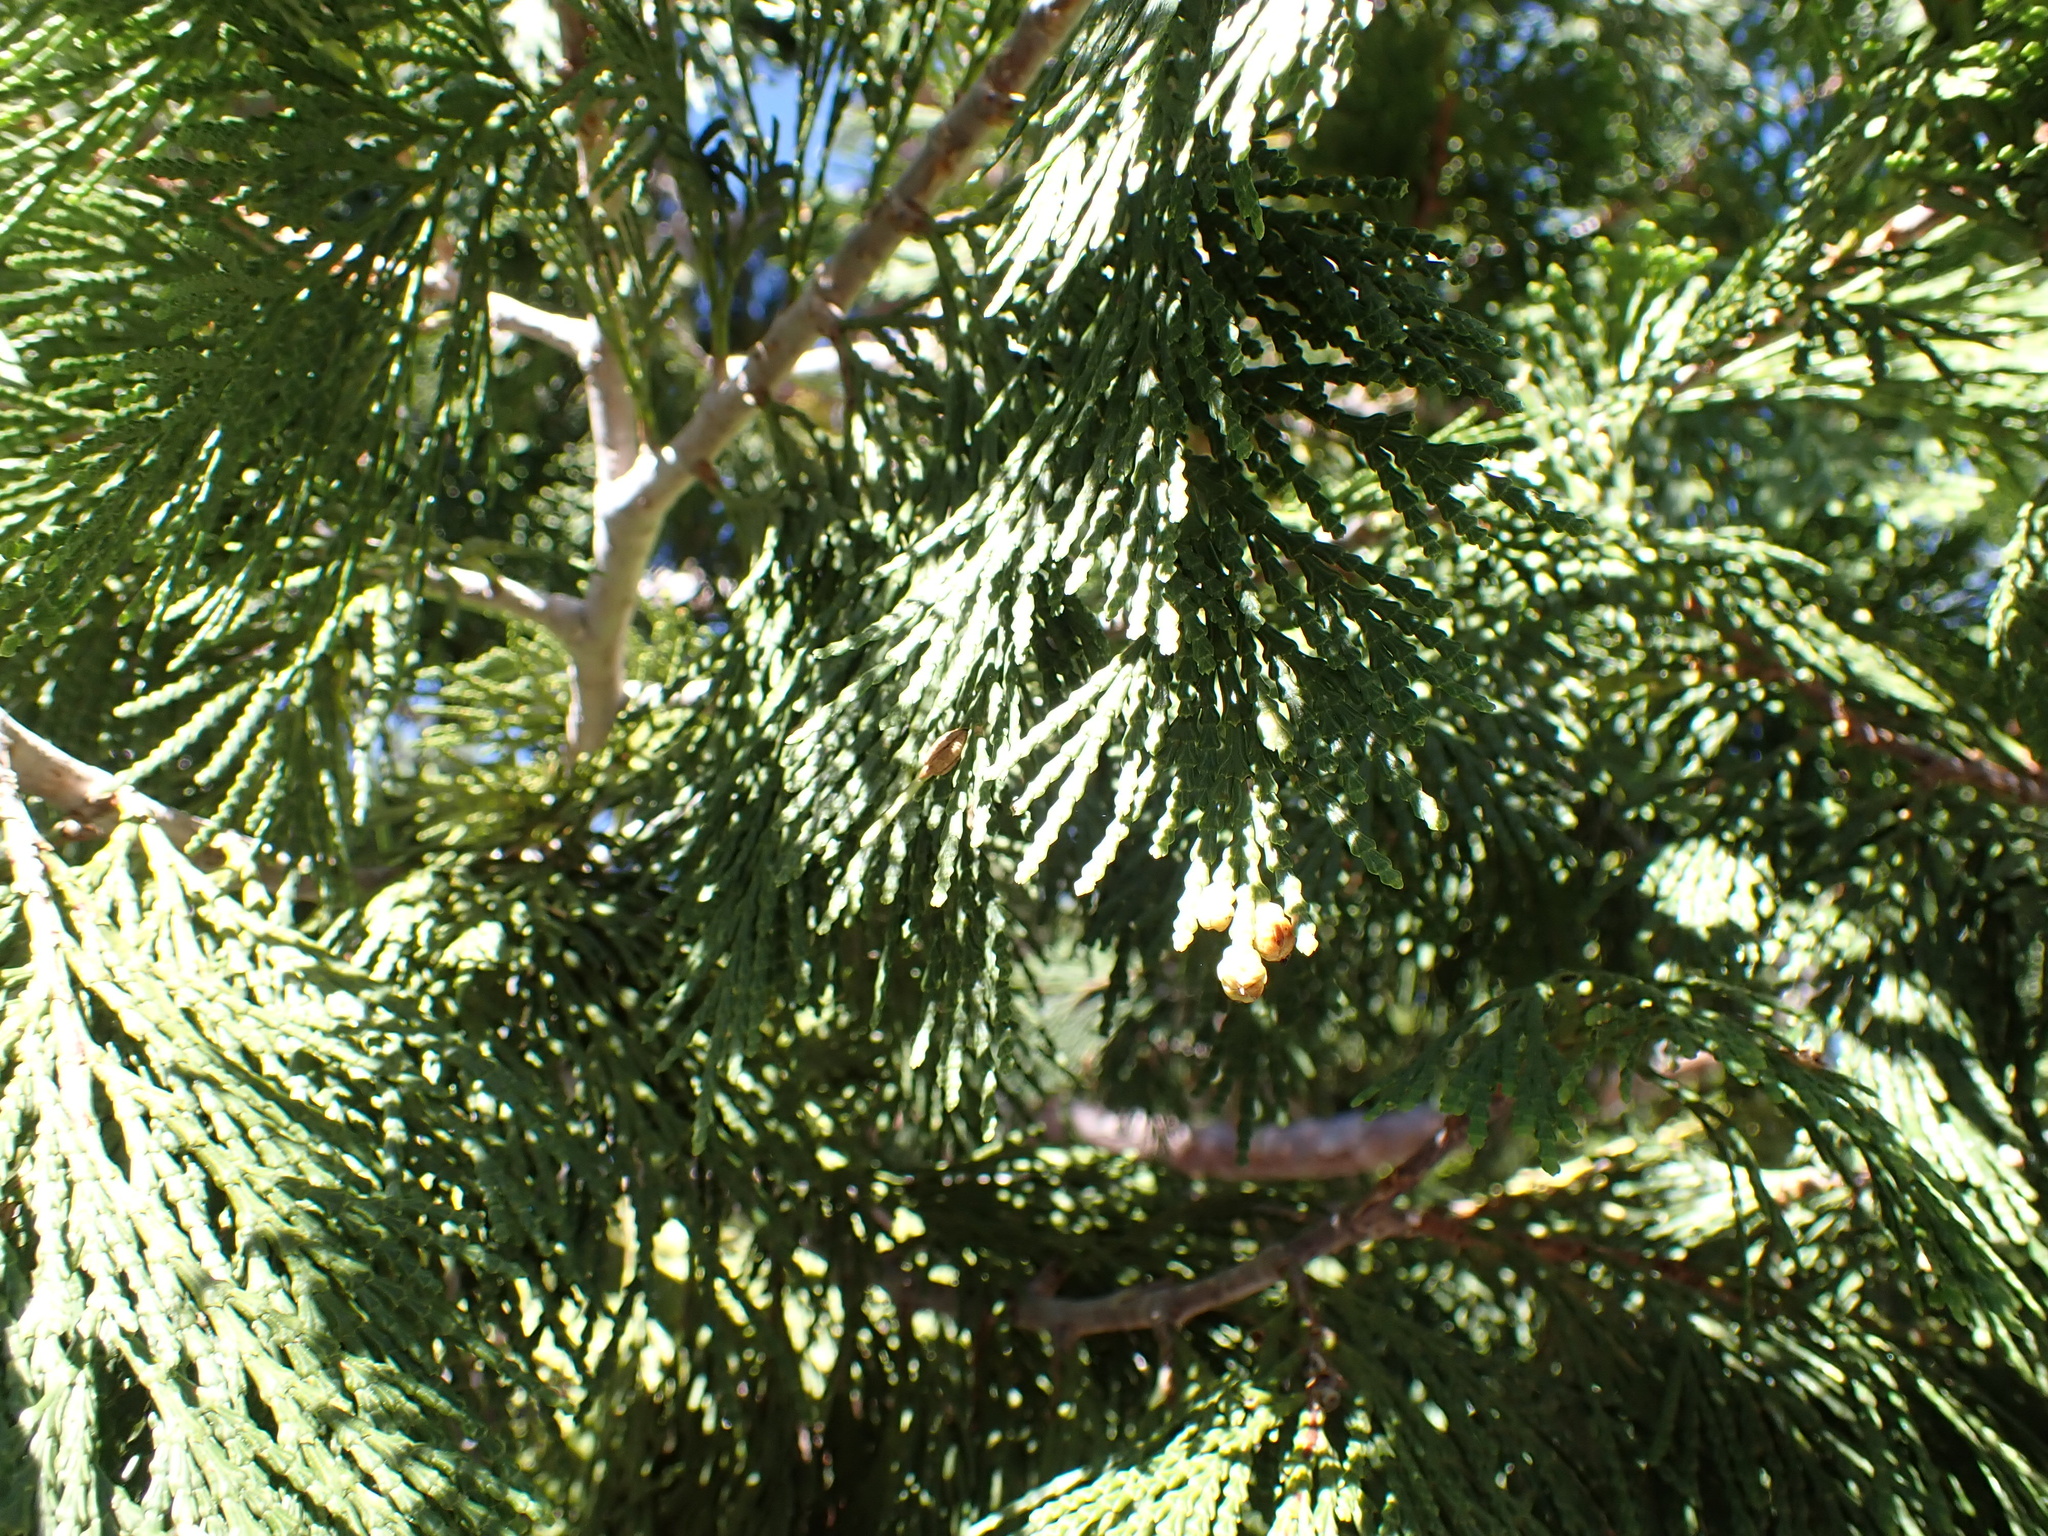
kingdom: Plantae
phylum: Tracheophyta
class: Pinopsida
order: Pinales
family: Cupressaceae
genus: Calocedrus
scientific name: Calocedrus decurrens
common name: Californian incense-cedar
